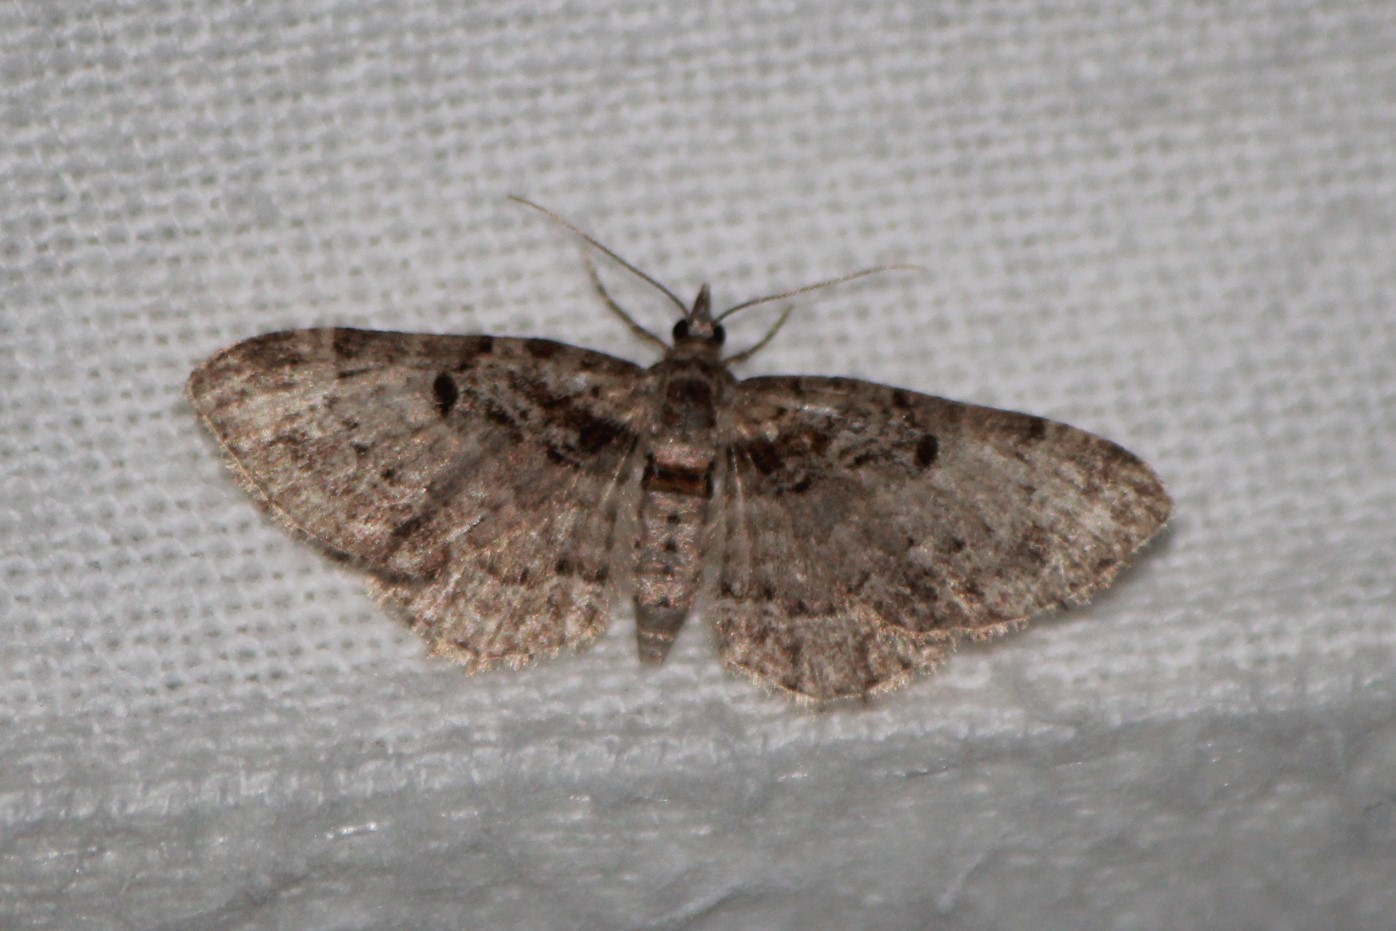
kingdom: Animalia
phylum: Arthropoda
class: Insecta
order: Lepidoptera
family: Geometridae
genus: Pasiphila
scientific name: Pasiphila rectangulata
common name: Green pug
